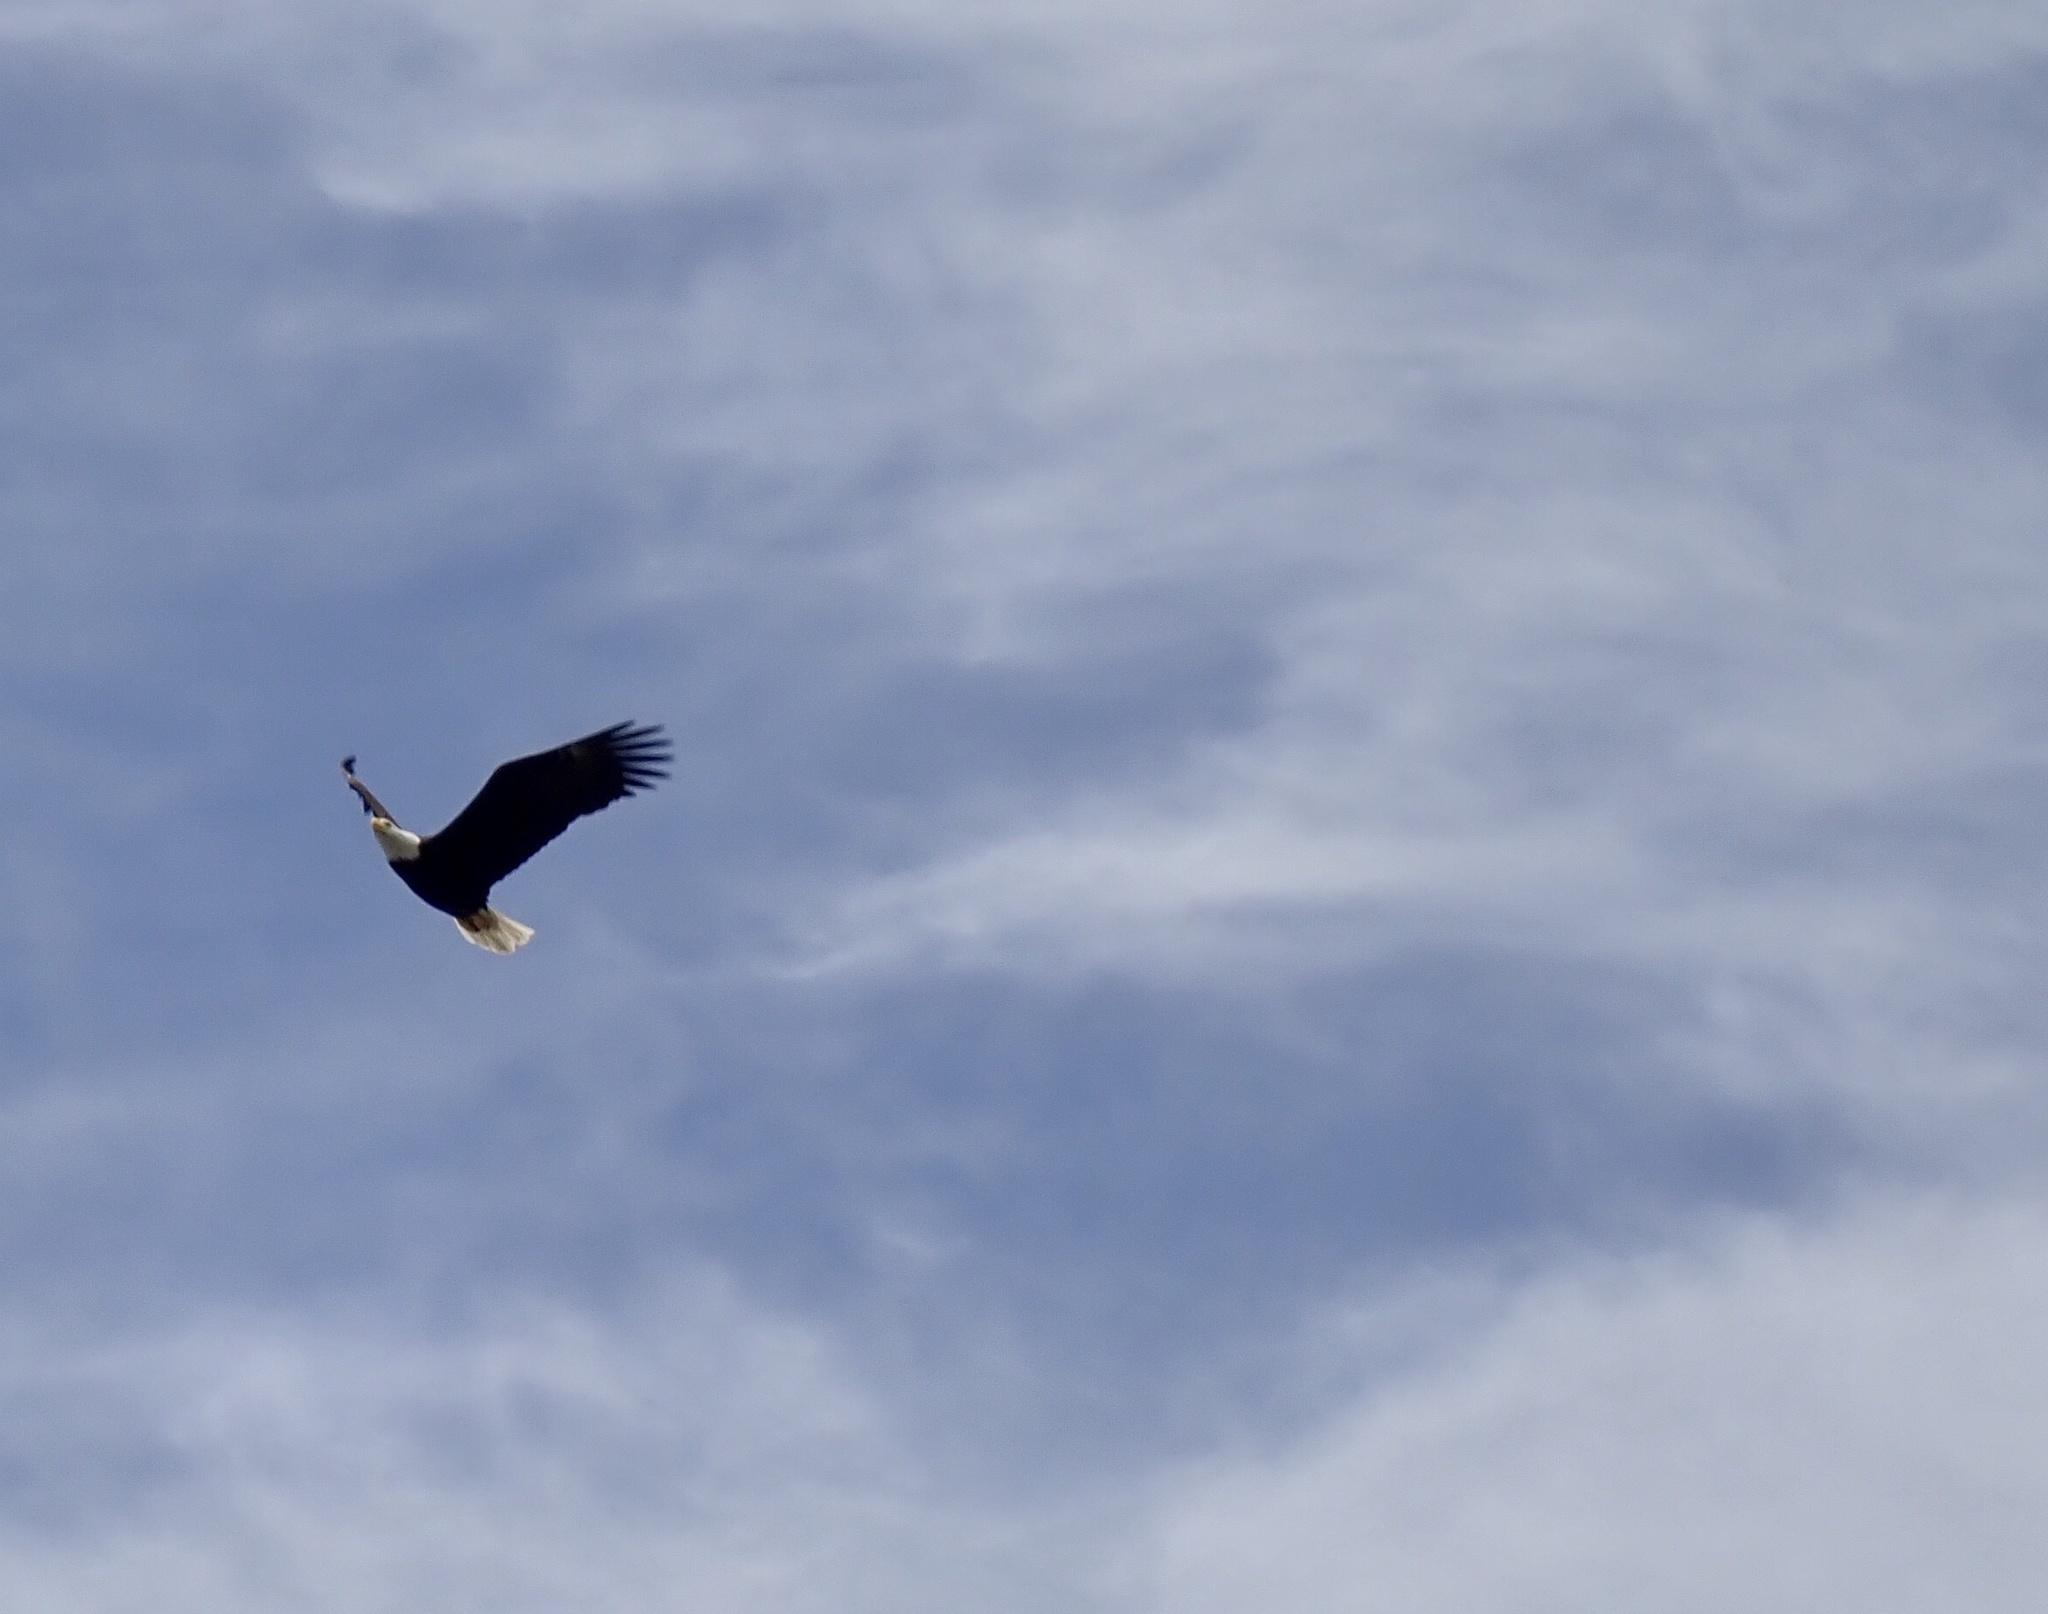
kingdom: Animalia
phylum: Chordata
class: Aves
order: Accipitriformes
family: Accipitridae
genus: Haliaeetus
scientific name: Haliaeetus leucocephalus
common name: Bald eagle
